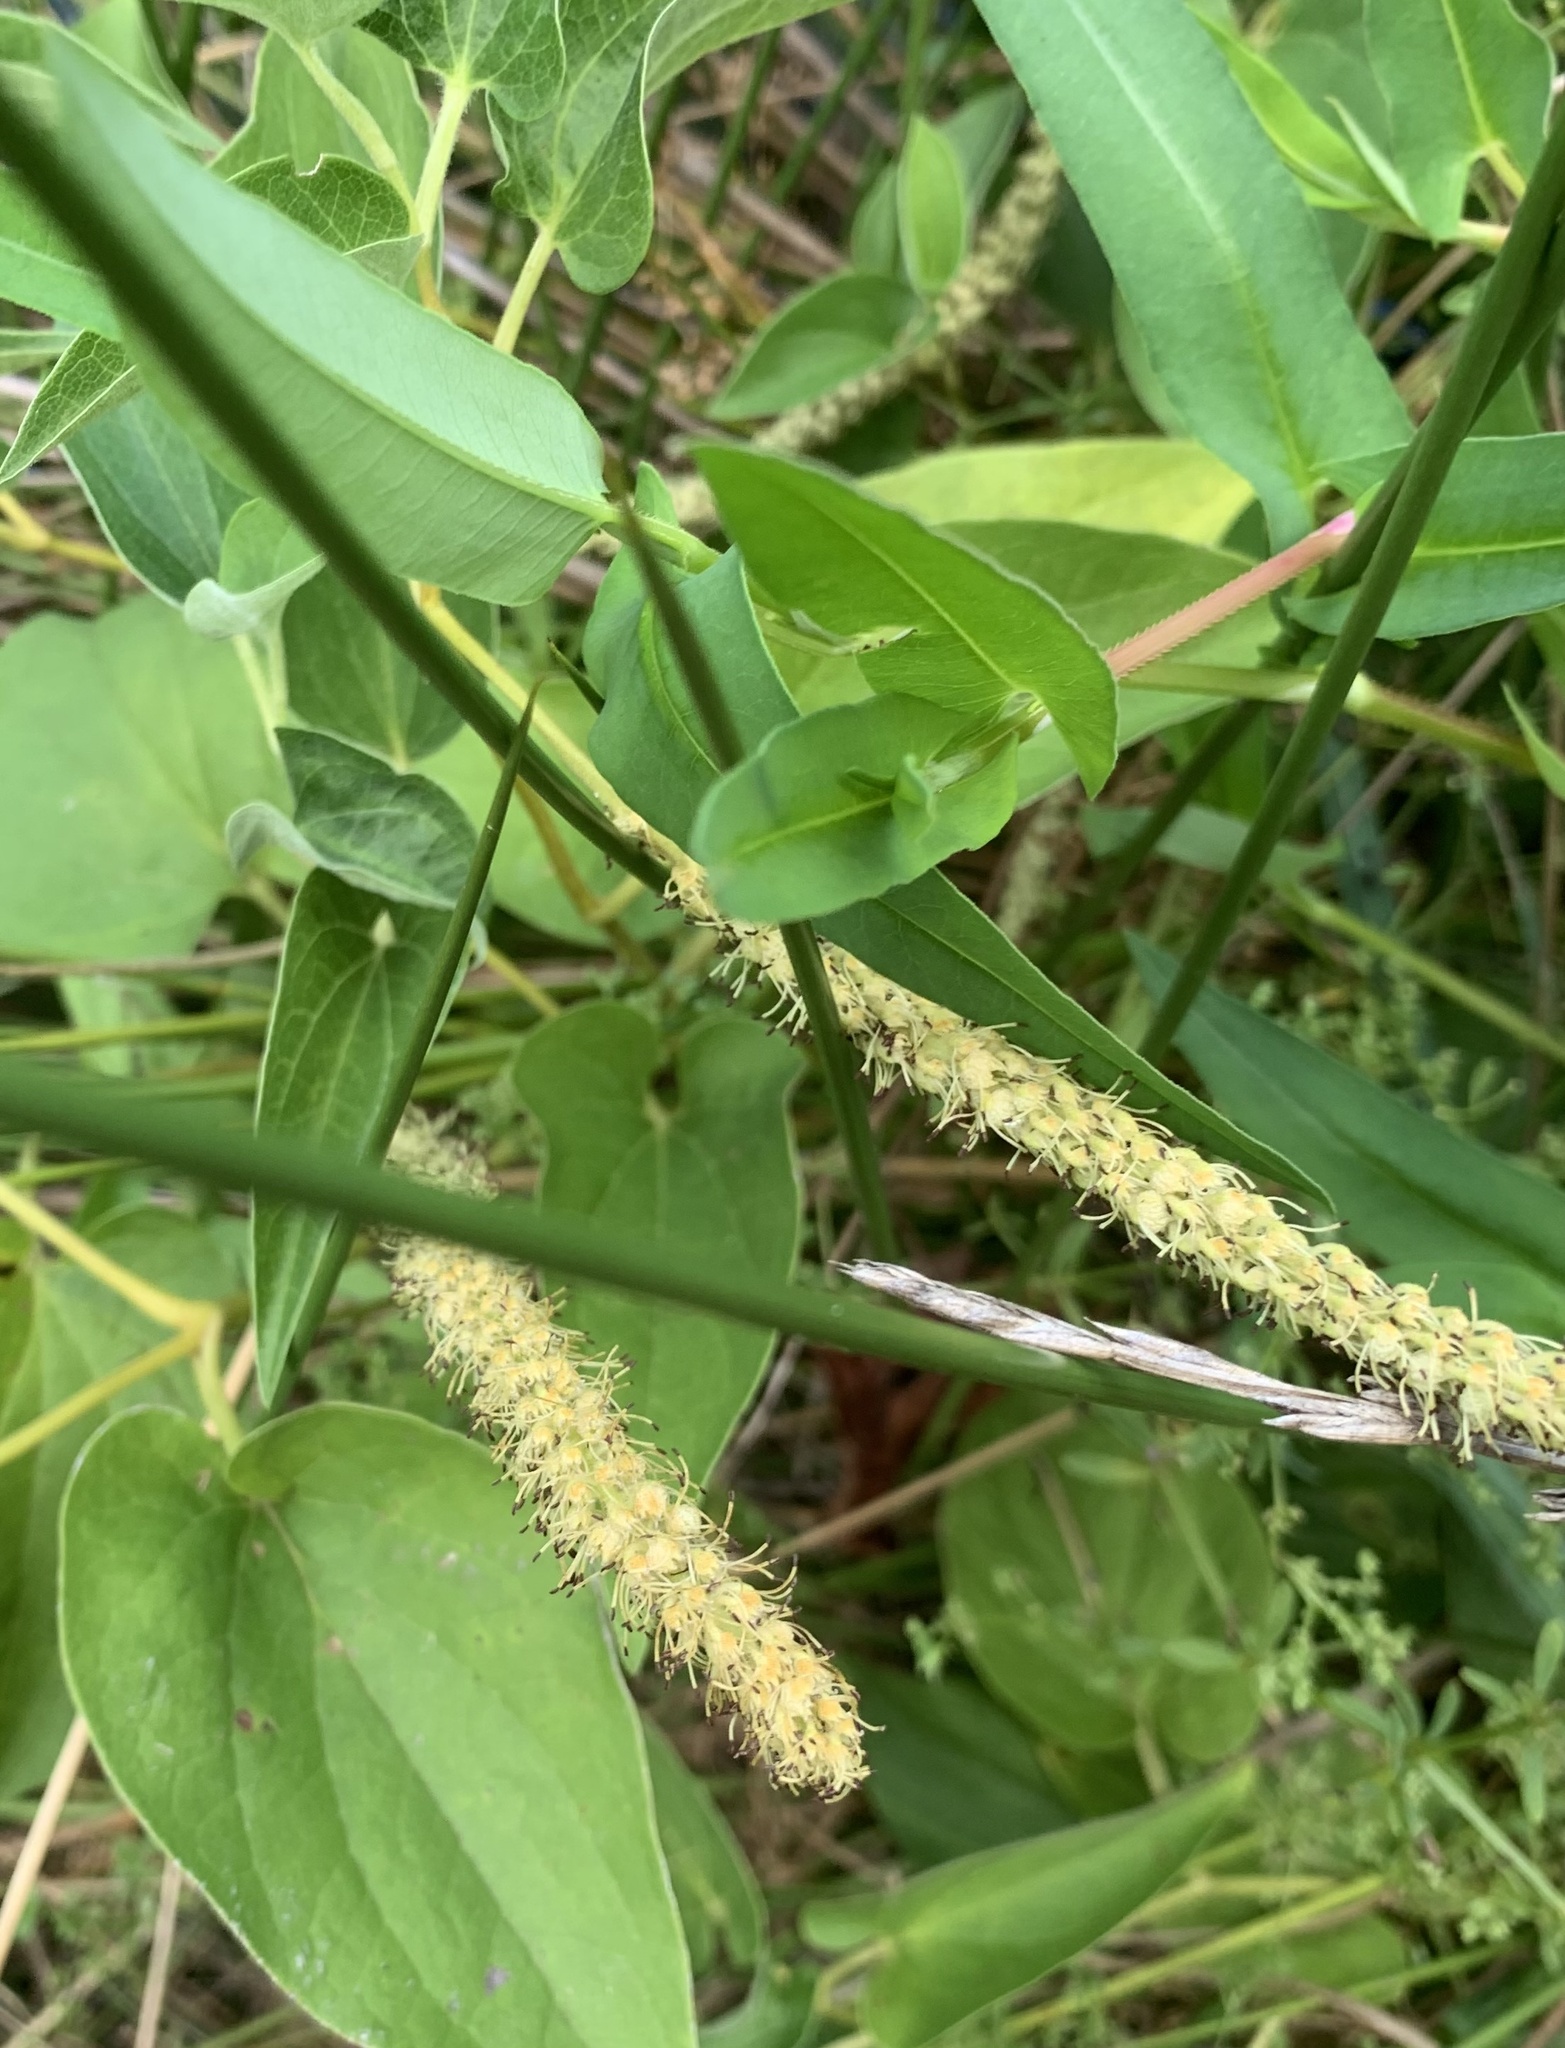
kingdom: Plantae
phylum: Tracheophyta
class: Magnoliopsida
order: Piperales
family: Saururaceae
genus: Saururus
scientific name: Saururus cernuus
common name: Lizard's-tail
